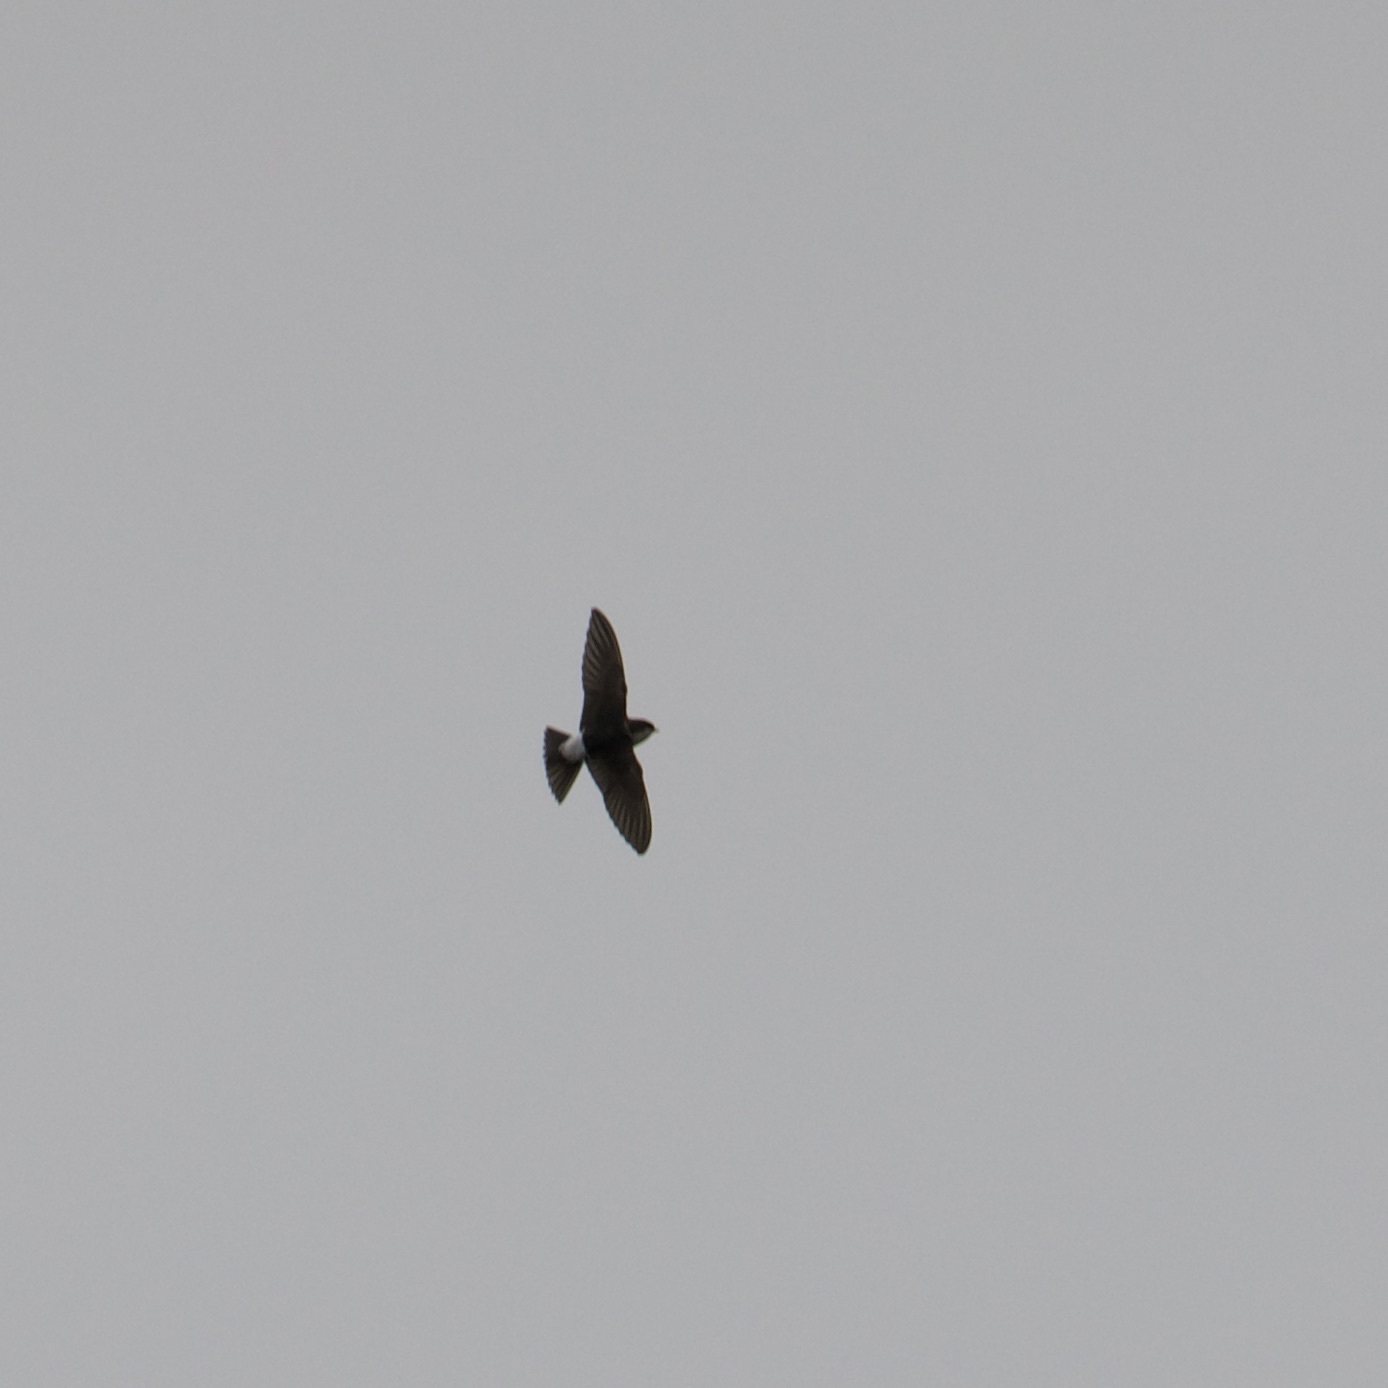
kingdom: Animalia
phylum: Chordata
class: Aves
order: Passeriformes
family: Hirundinidae
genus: Delichon
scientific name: Delichon urbicum
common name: Common house martin
